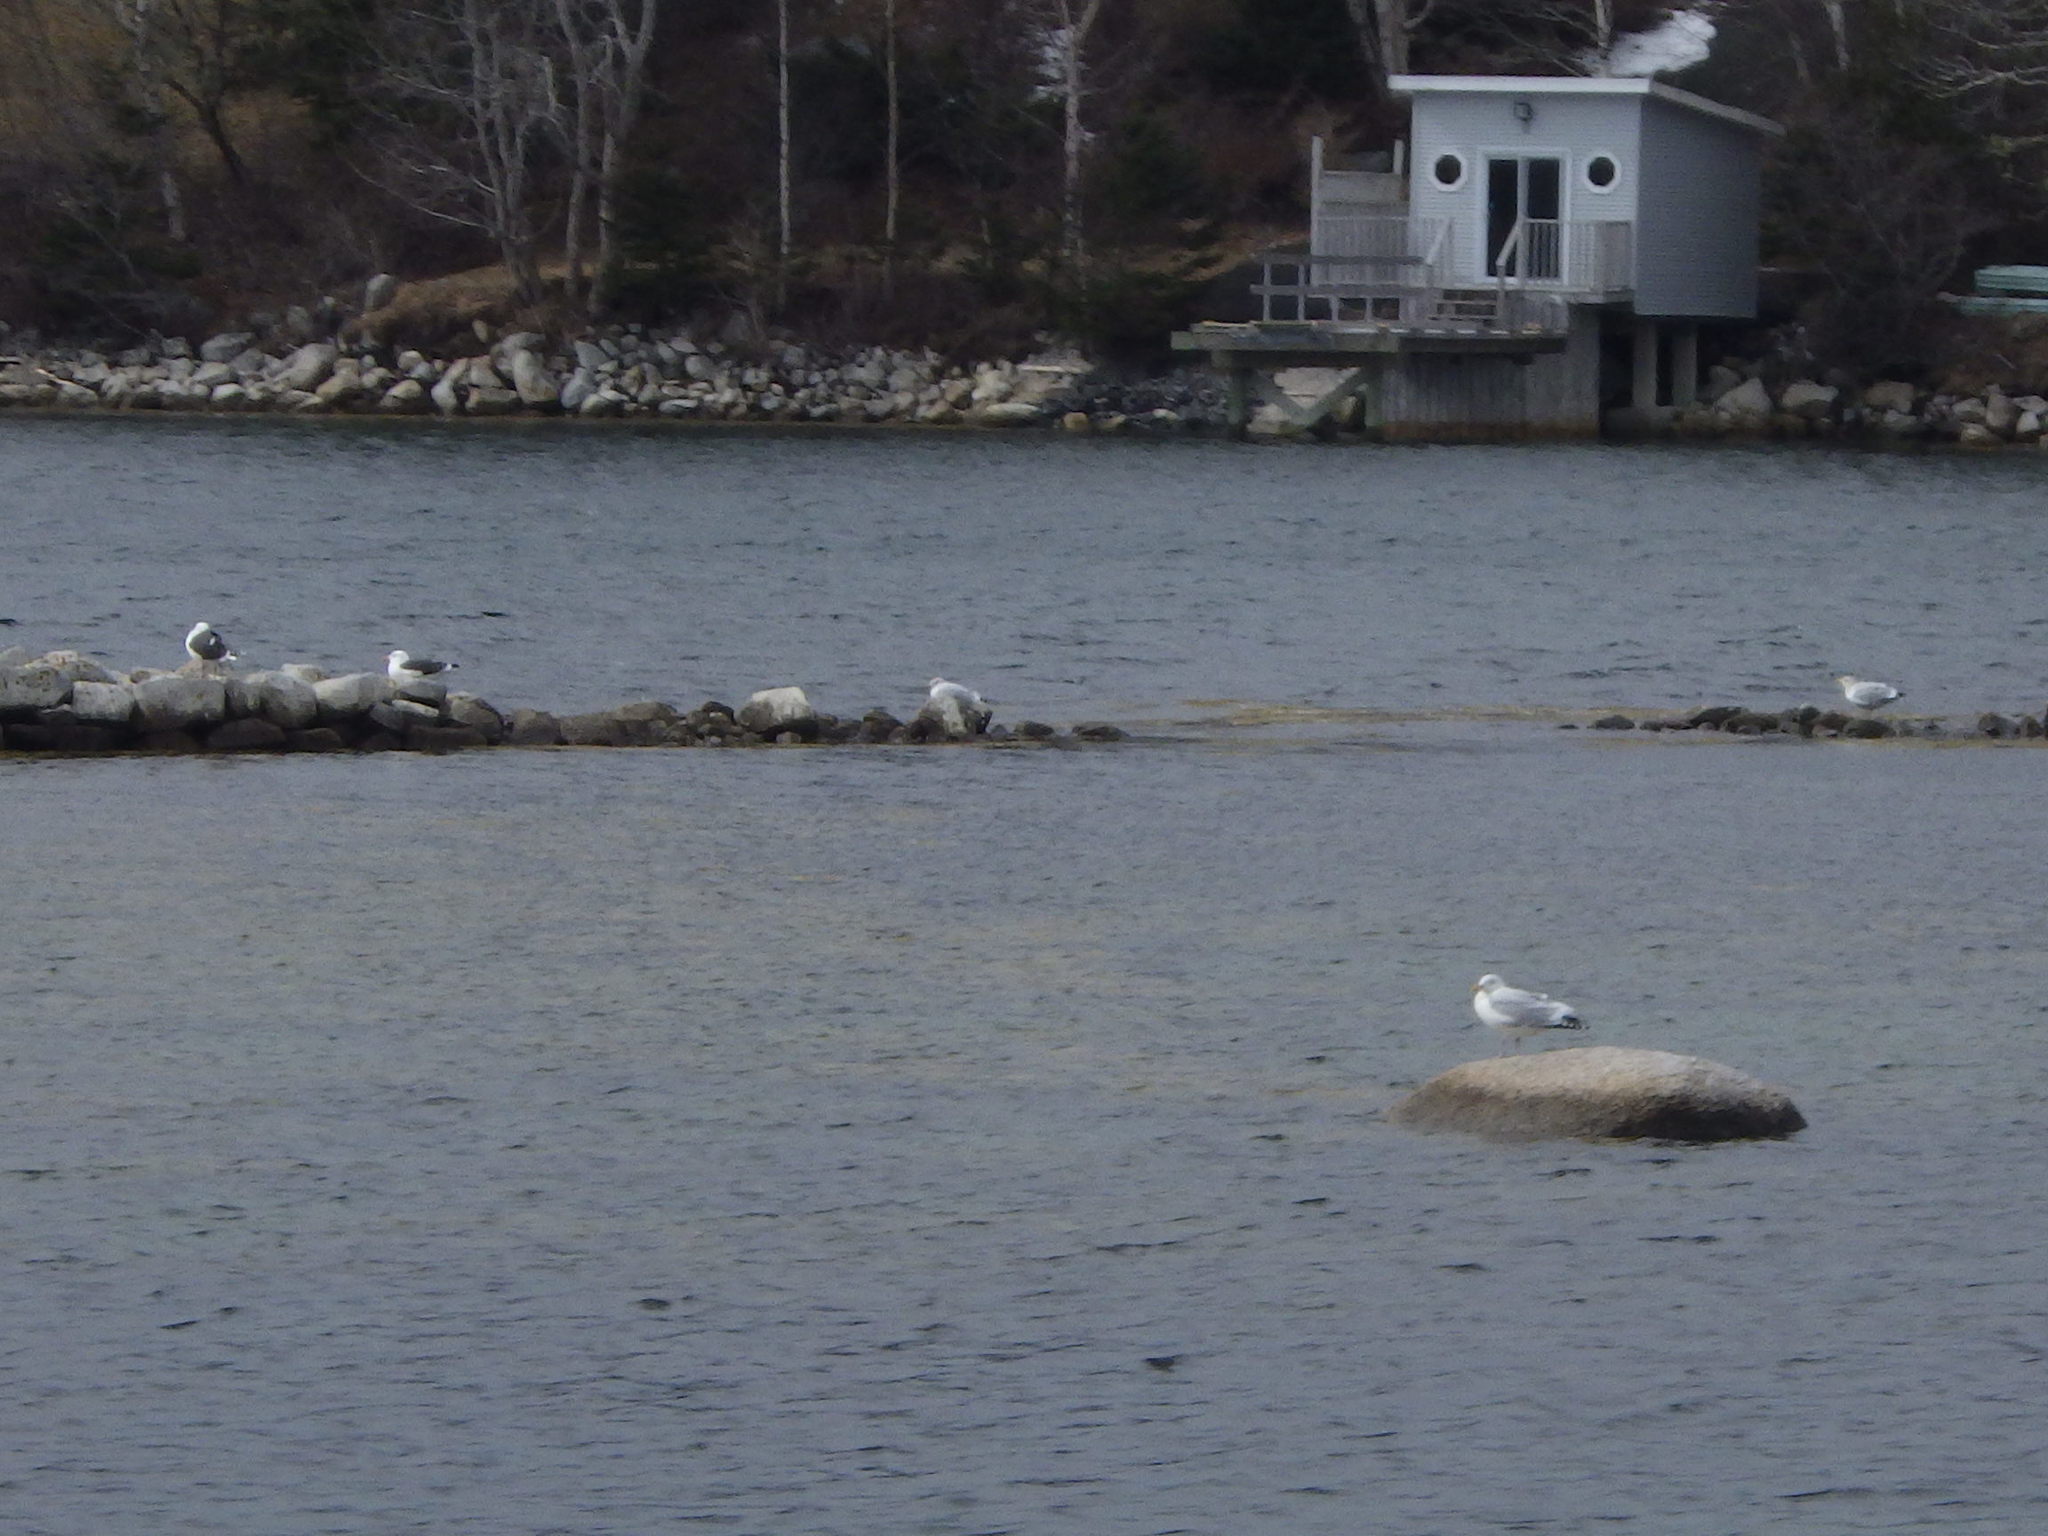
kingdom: Animalia
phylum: Chordata
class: Aves
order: Charadriiformes
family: Laridae
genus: Larus
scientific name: Larus argentatus
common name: Herring gull
